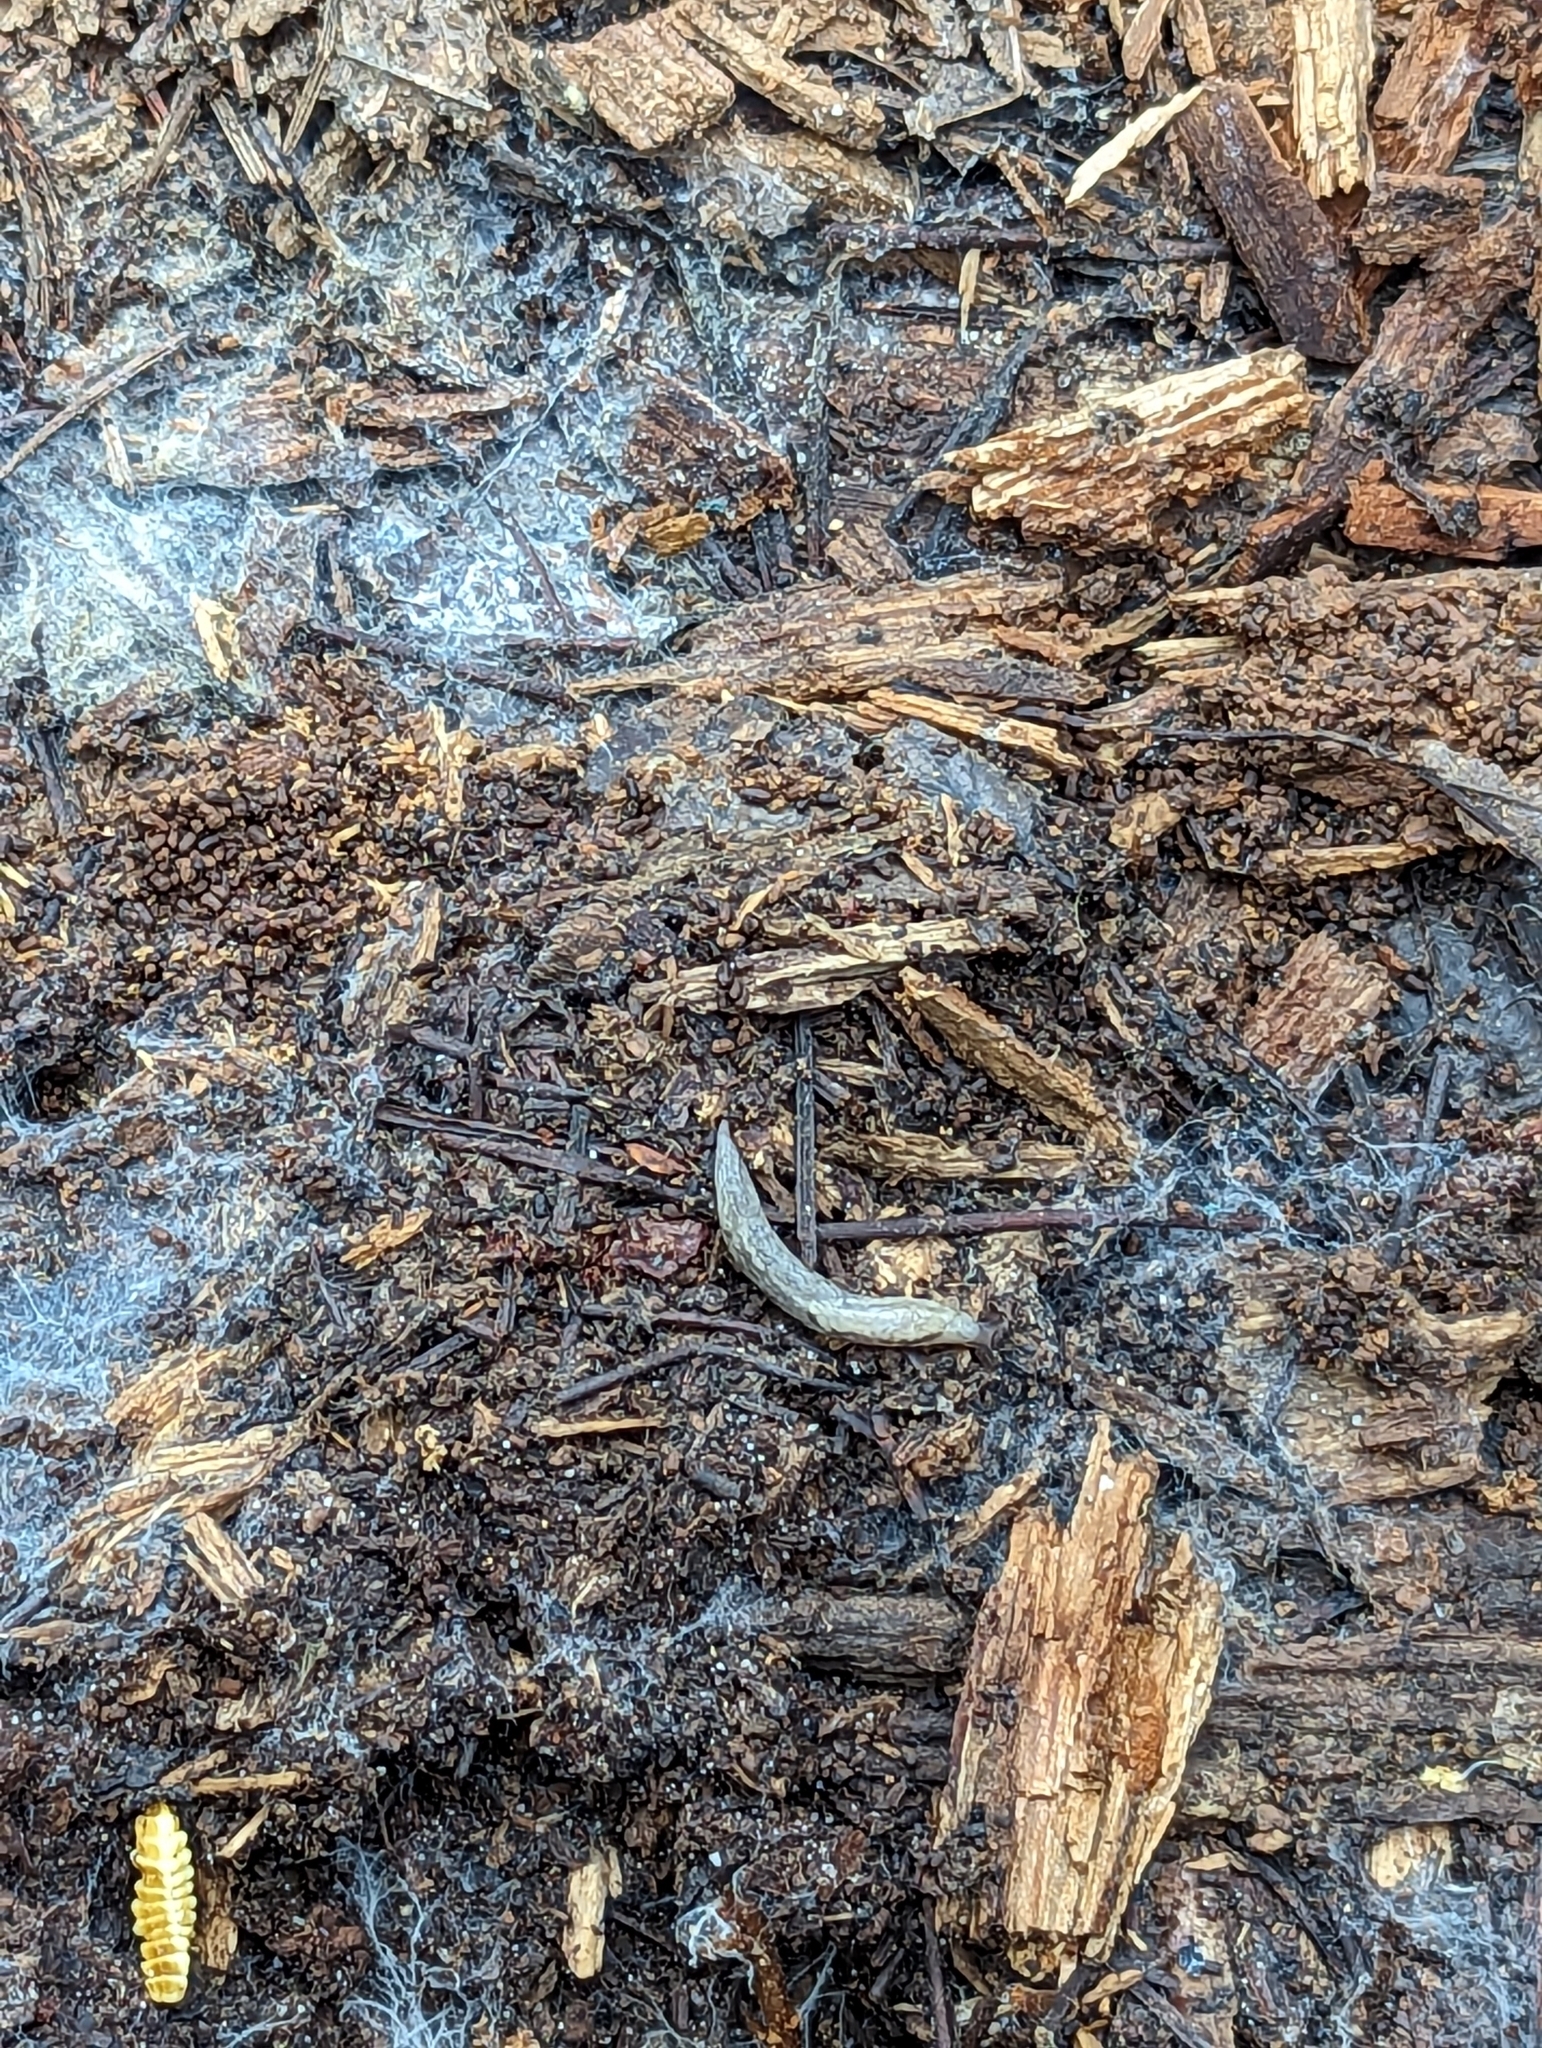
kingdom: Animalia
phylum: Mollusca
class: Gastropoda
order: Stylommatophora
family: Ariolimacidae
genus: Prophysaon
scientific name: Prophysaon andersonii
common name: Reticulate taildropper
